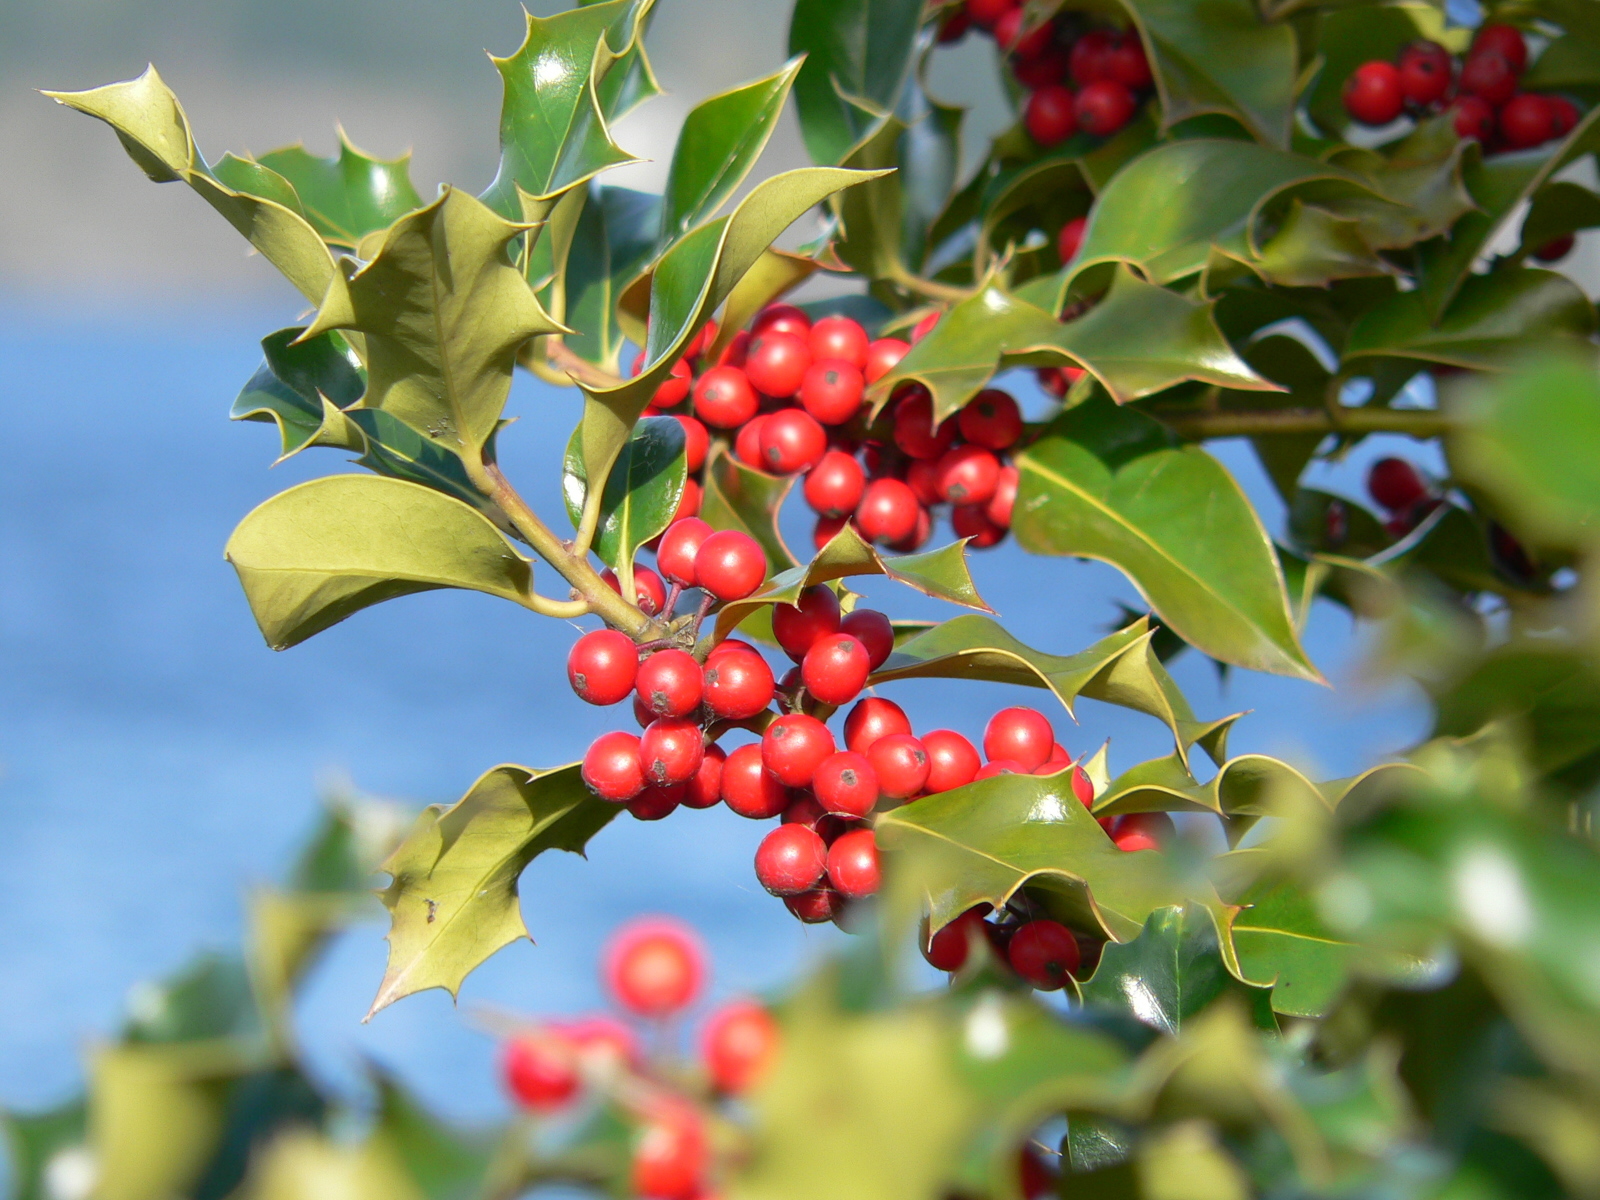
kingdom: Plantae
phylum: Tracheophyta
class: Magnoliopsida
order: Aquifoliales
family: Aquifoliaceae
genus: Ilex
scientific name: Ilex aquifolium
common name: English holly
